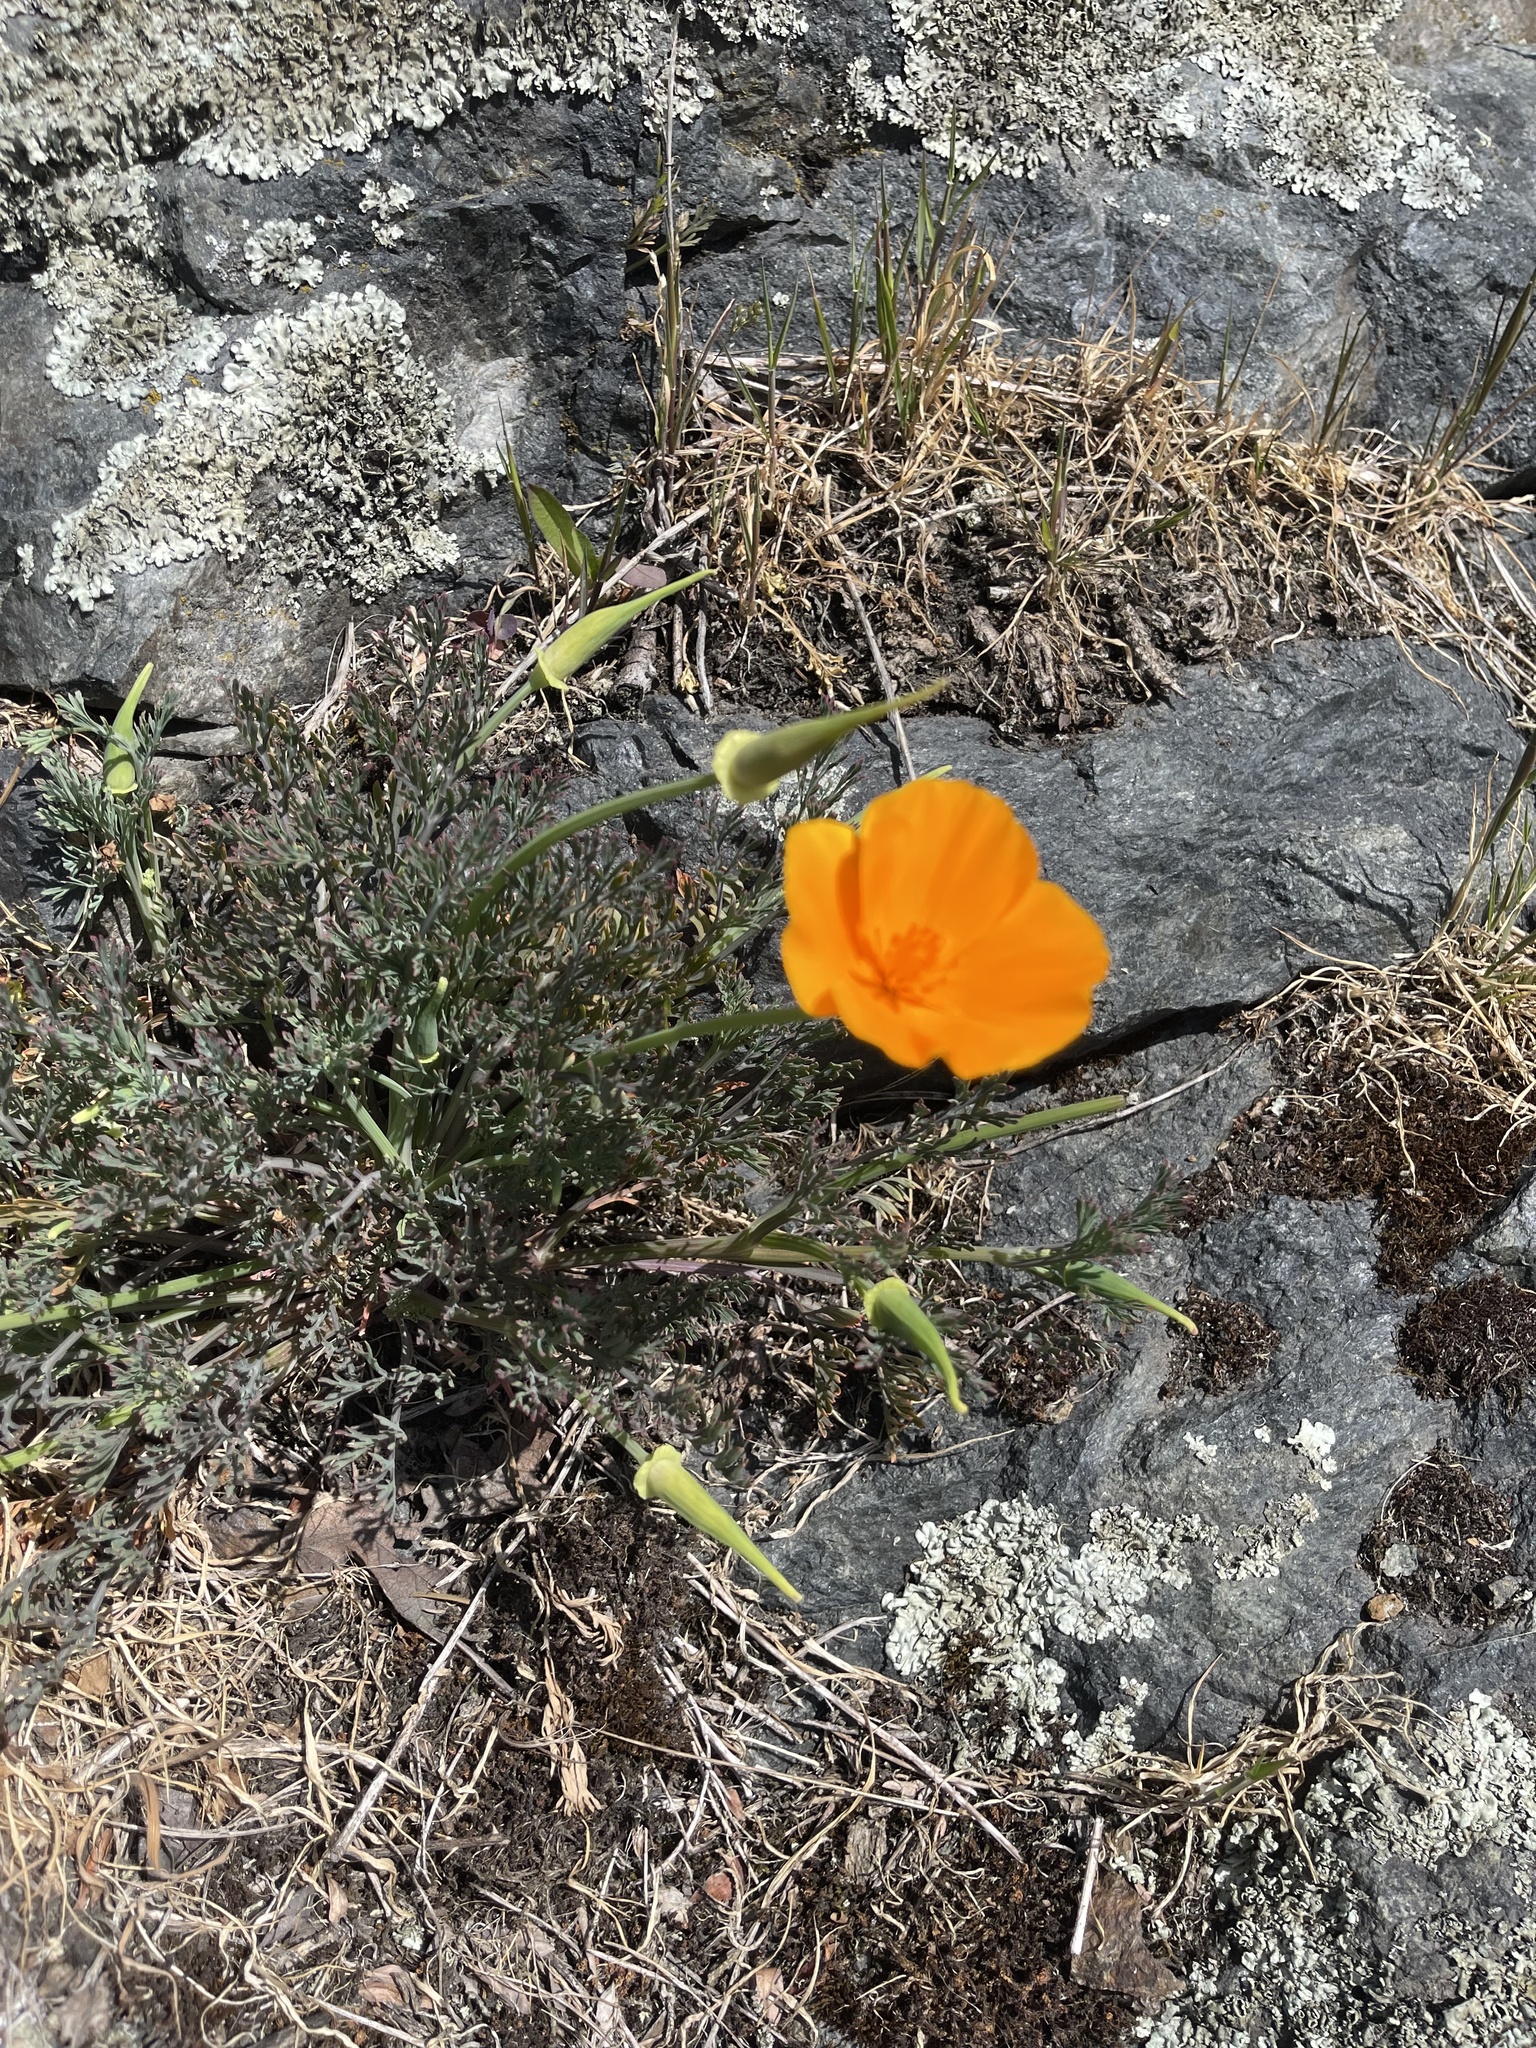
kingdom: Plantae
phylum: Tracheophyta
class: Magnoliopsida
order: Ranunculales
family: Papaveraceae
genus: Eschscholzia
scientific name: Eschscholzia californica
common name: California poppy
